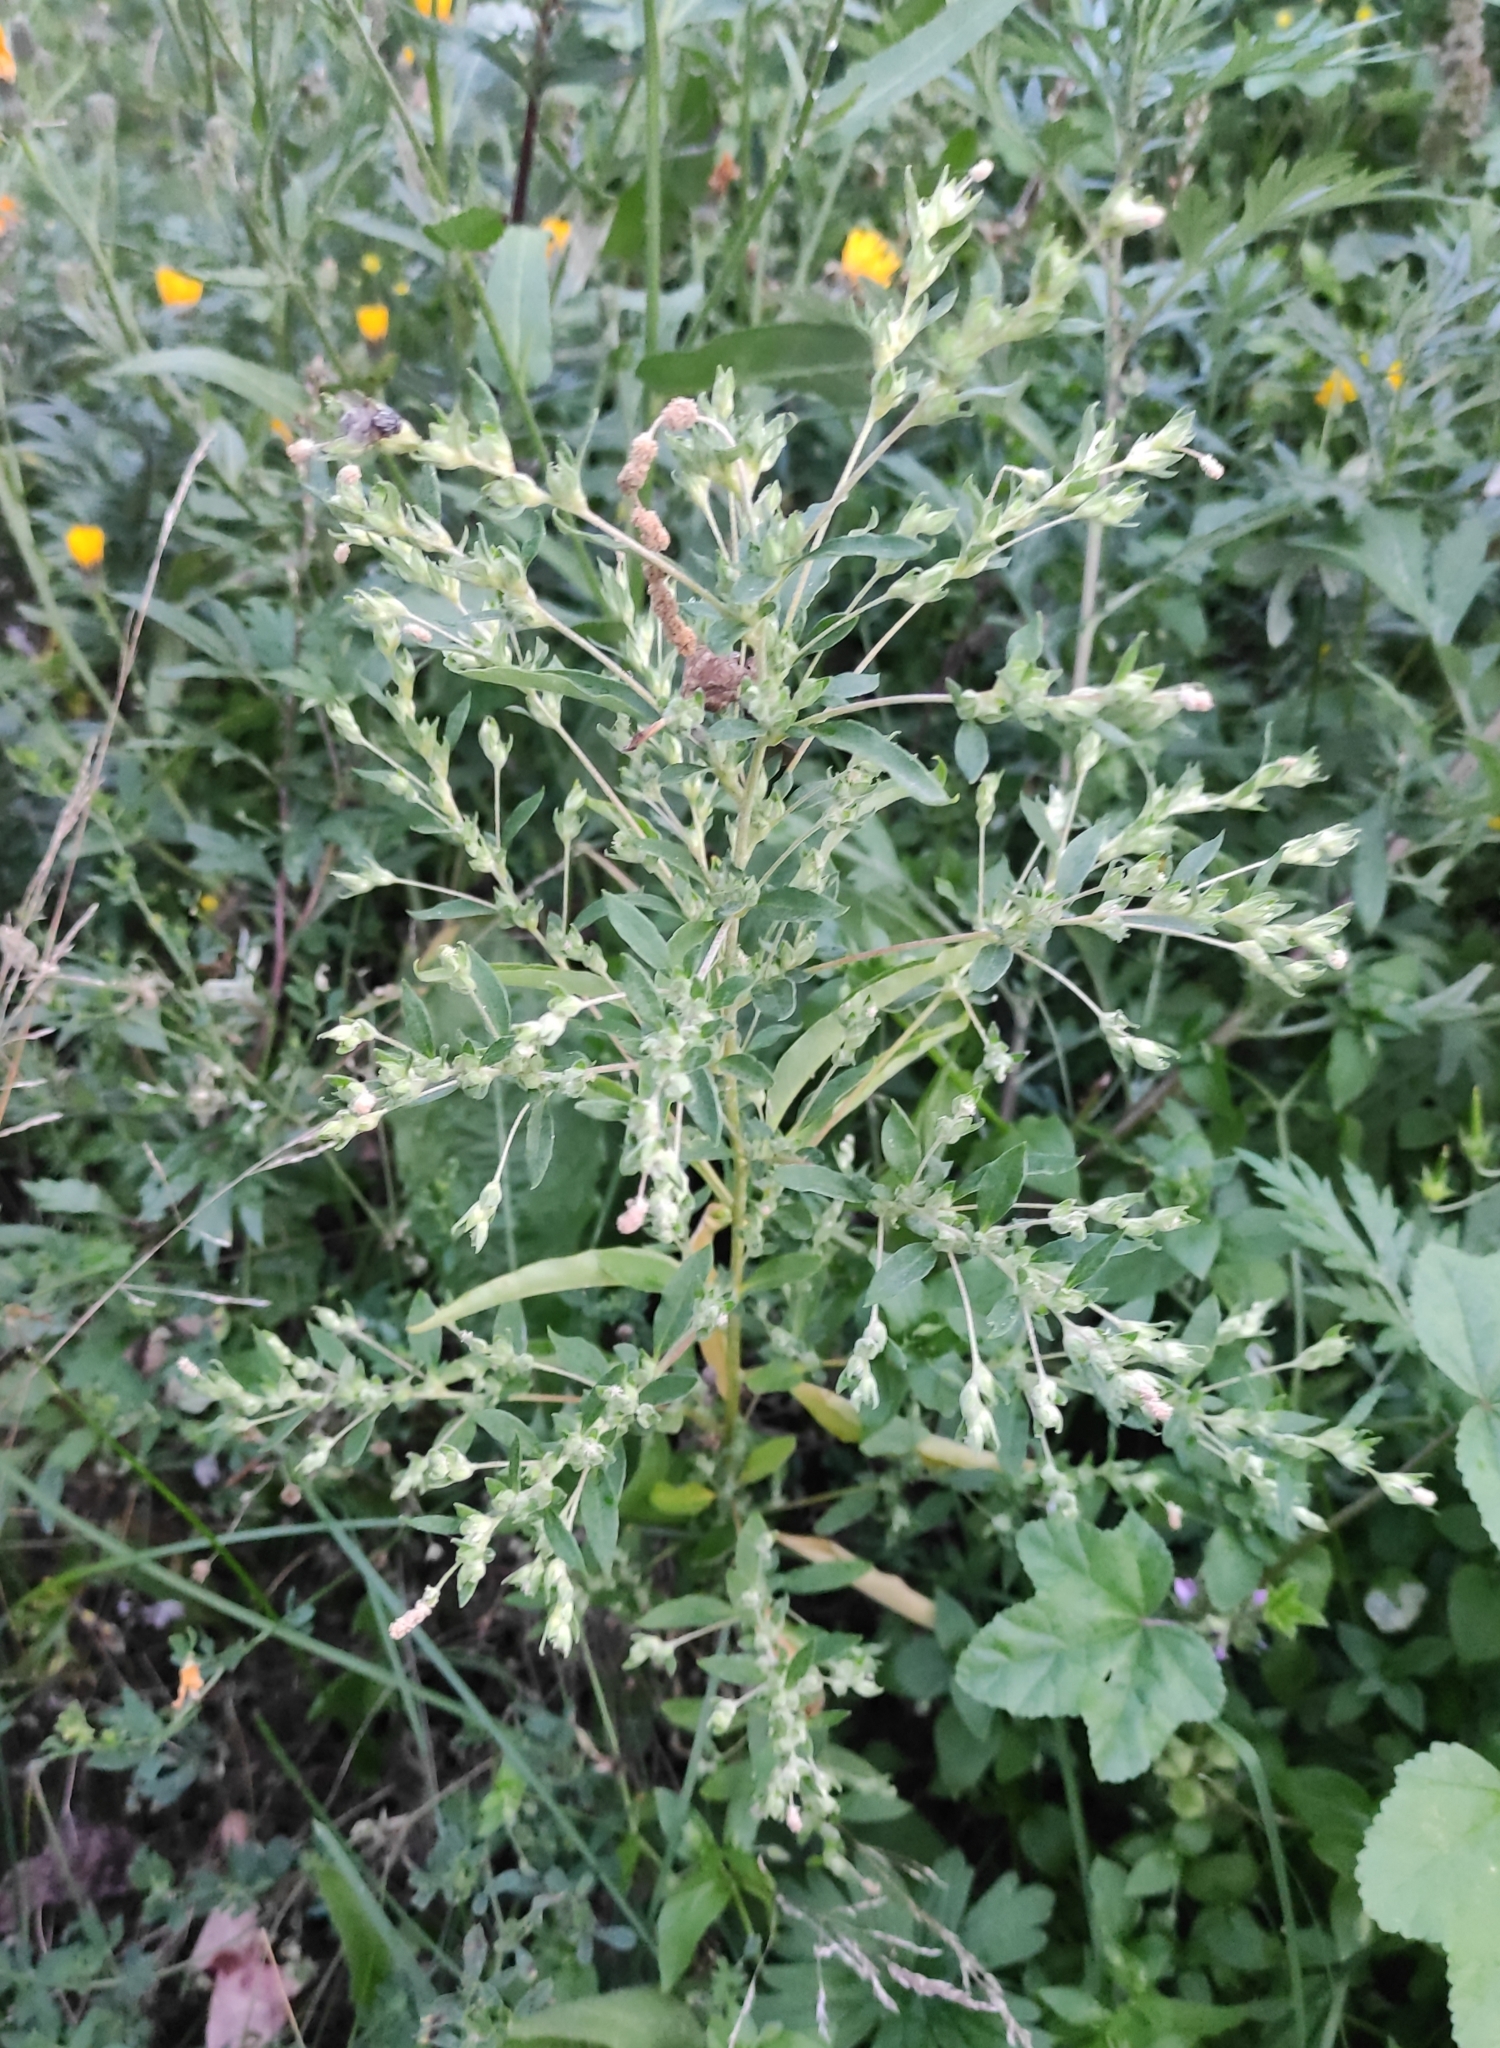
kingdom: Plantae
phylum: Tracheophyta
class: Magnoliopsida
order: Caryophyllales
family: Amaranthaceae
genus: Axyris
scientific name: Axyris hybrida
